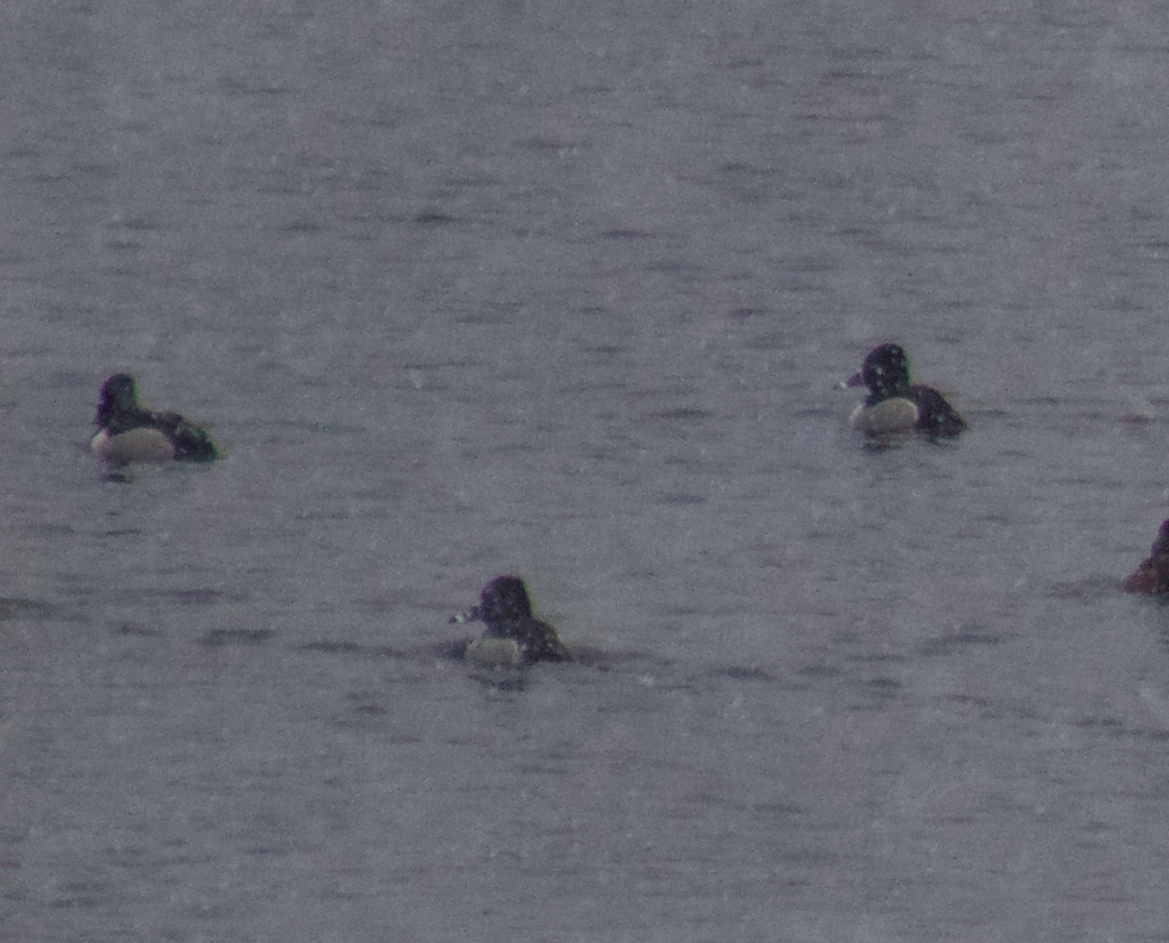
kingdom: Animalia
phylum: Chordata
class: Aves
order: Anseriformes
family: Anatidae
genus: Aythya
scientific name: Aythya collaris
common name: Ring-necked duck
